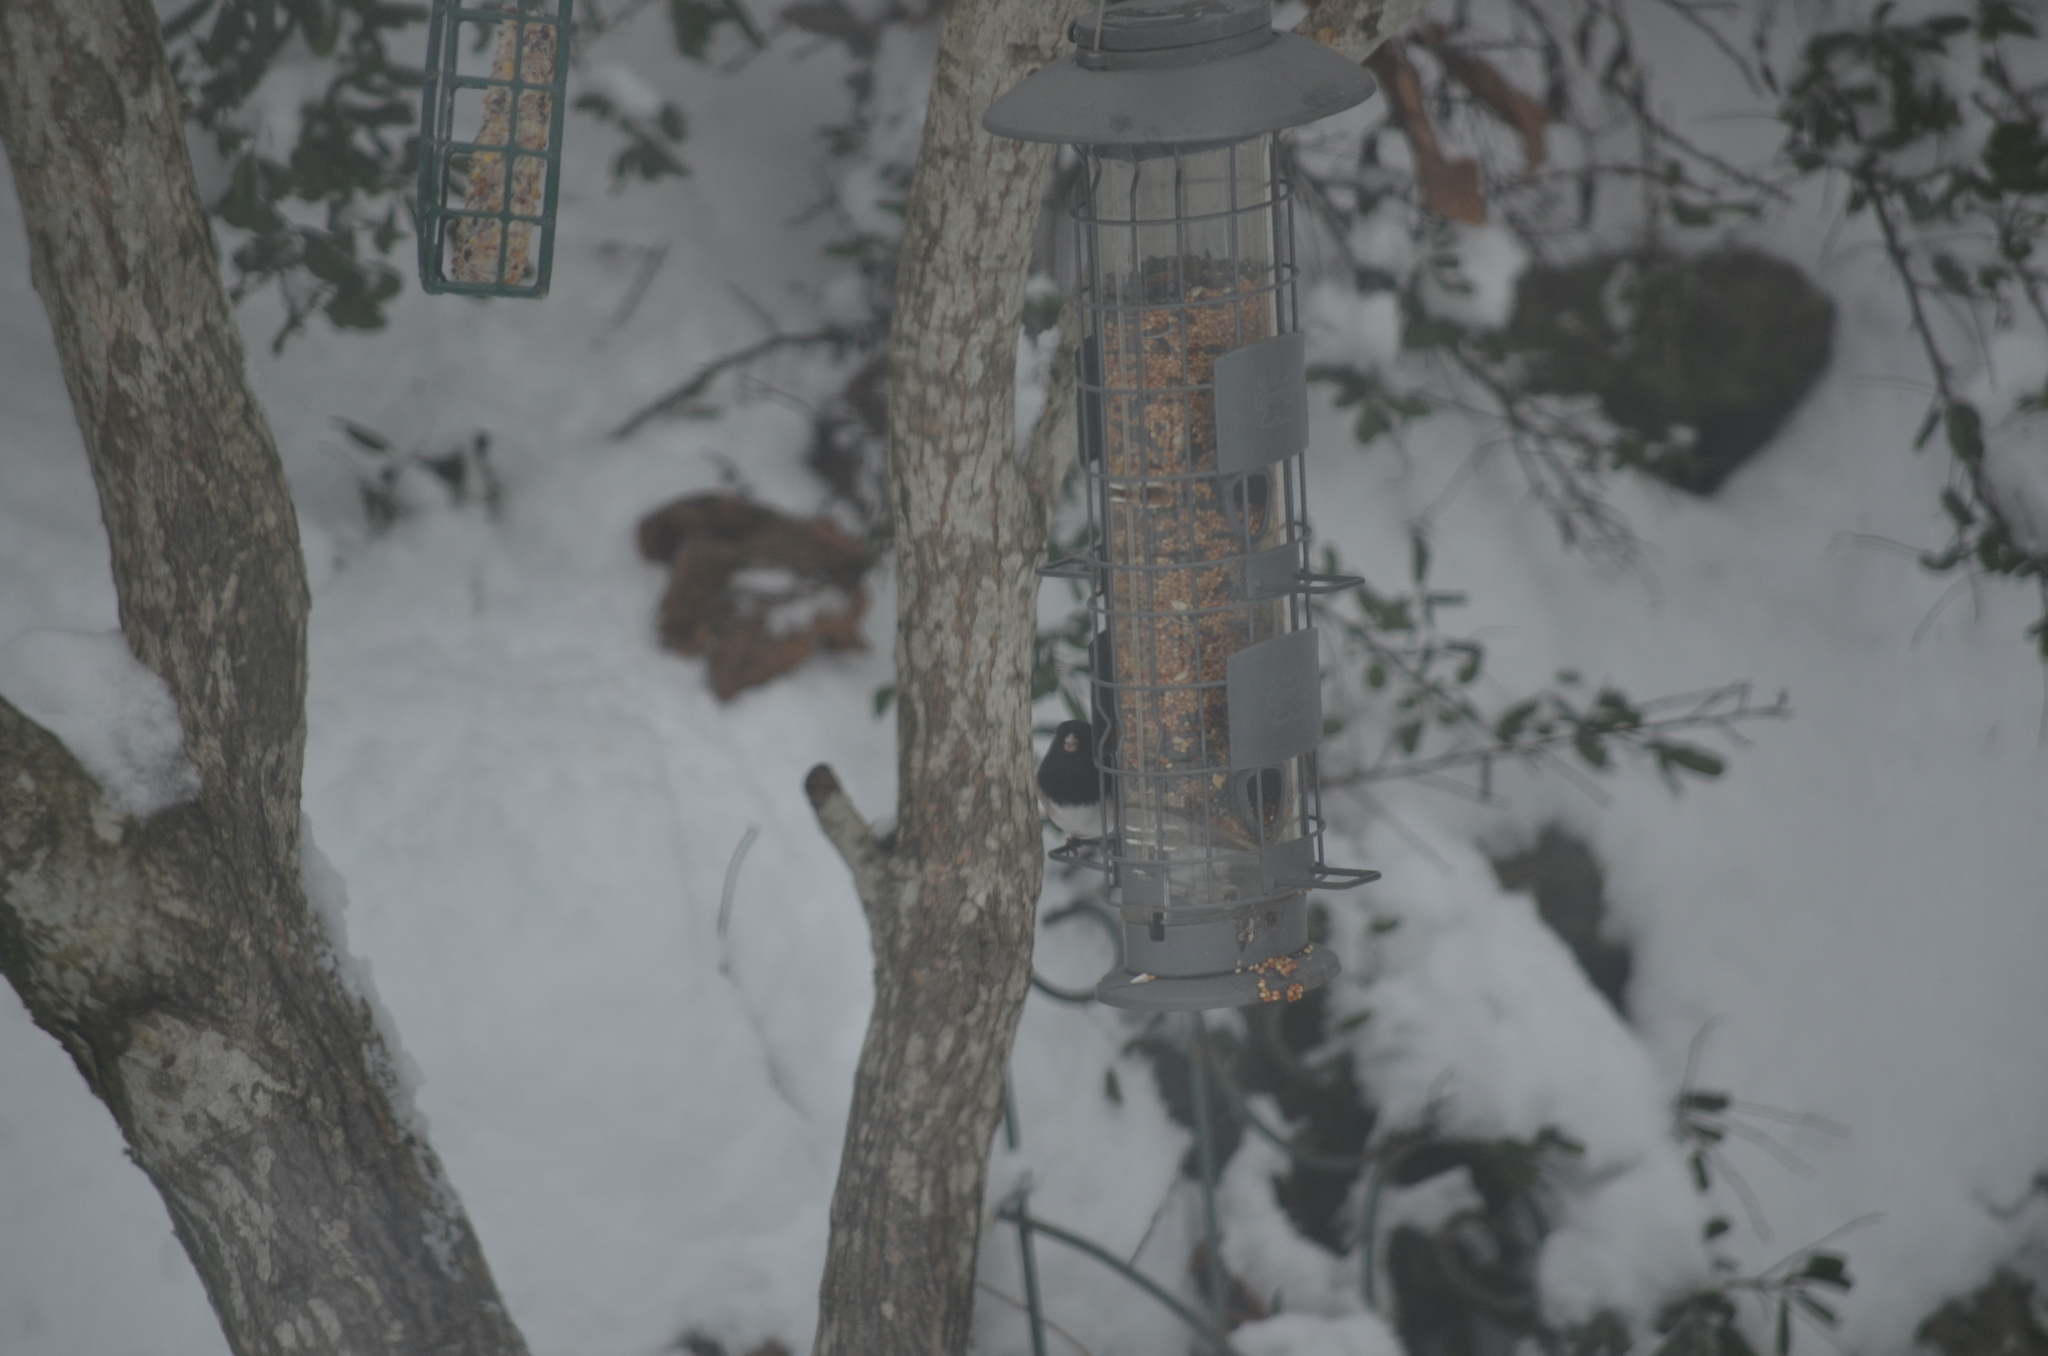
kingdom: Animalia
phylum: Chordata
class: Aves
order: Passeriformes
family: Passerellidae
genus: Junco
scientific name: Junco hyemalis
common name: Dark-eyed junco
